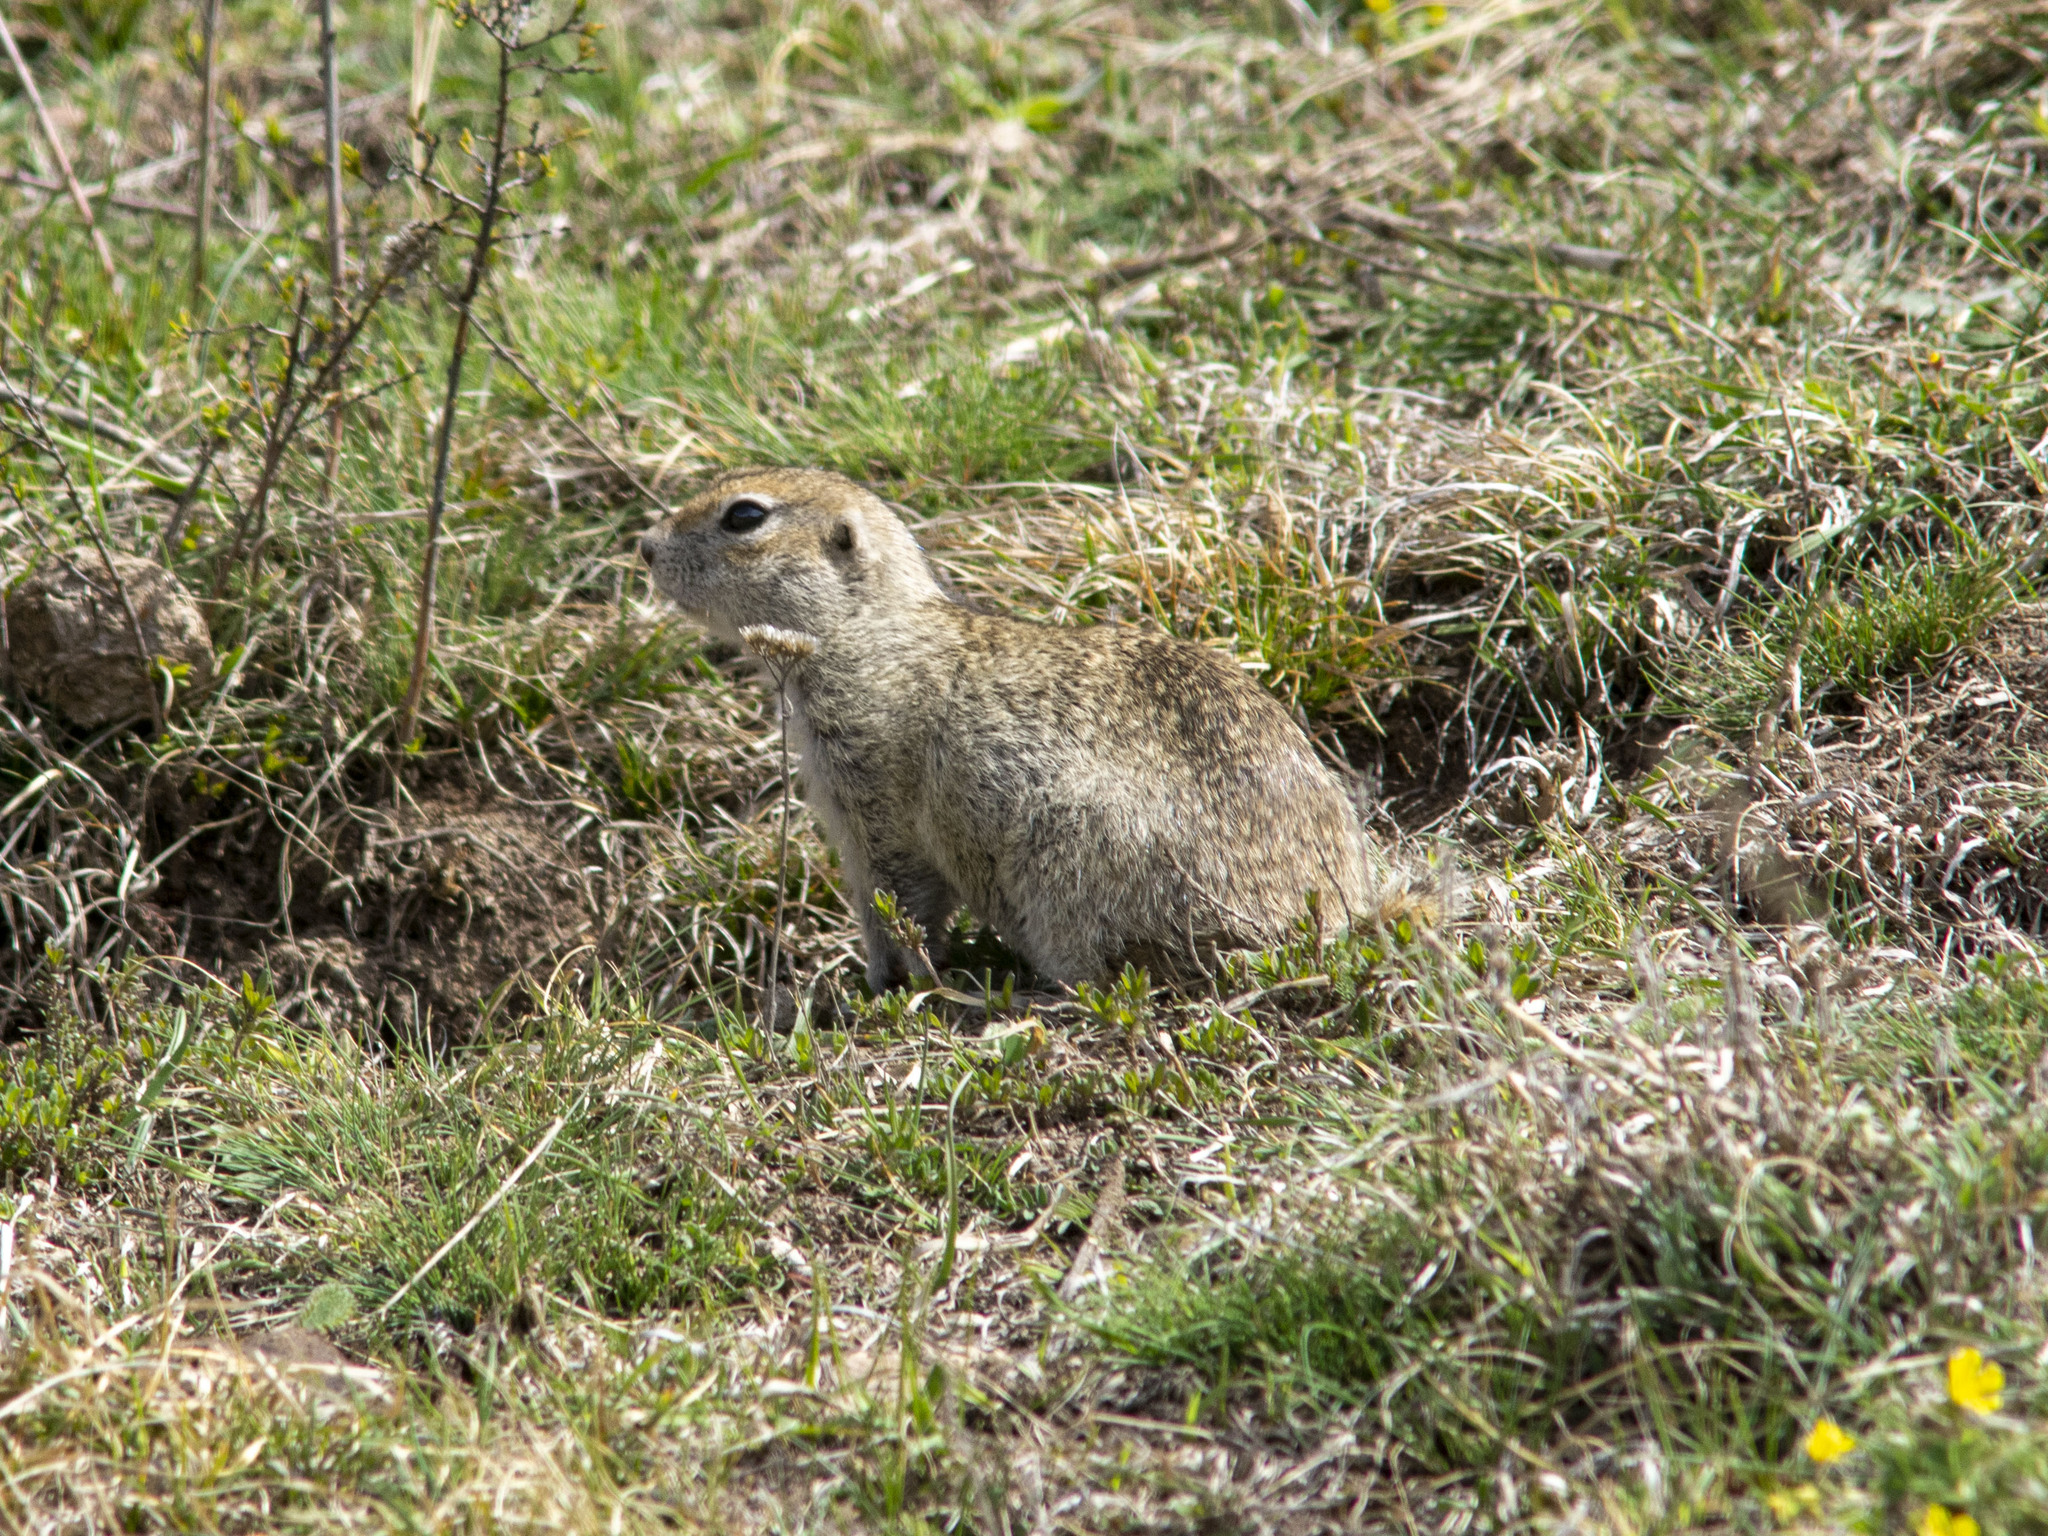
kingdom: Animalia
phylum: Chordata
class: Mammalia
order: Rodentia
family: Sciuridae
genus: Spermophilus
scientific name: Spermophilus musicus
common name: Caucasian mountain ground squirrel
